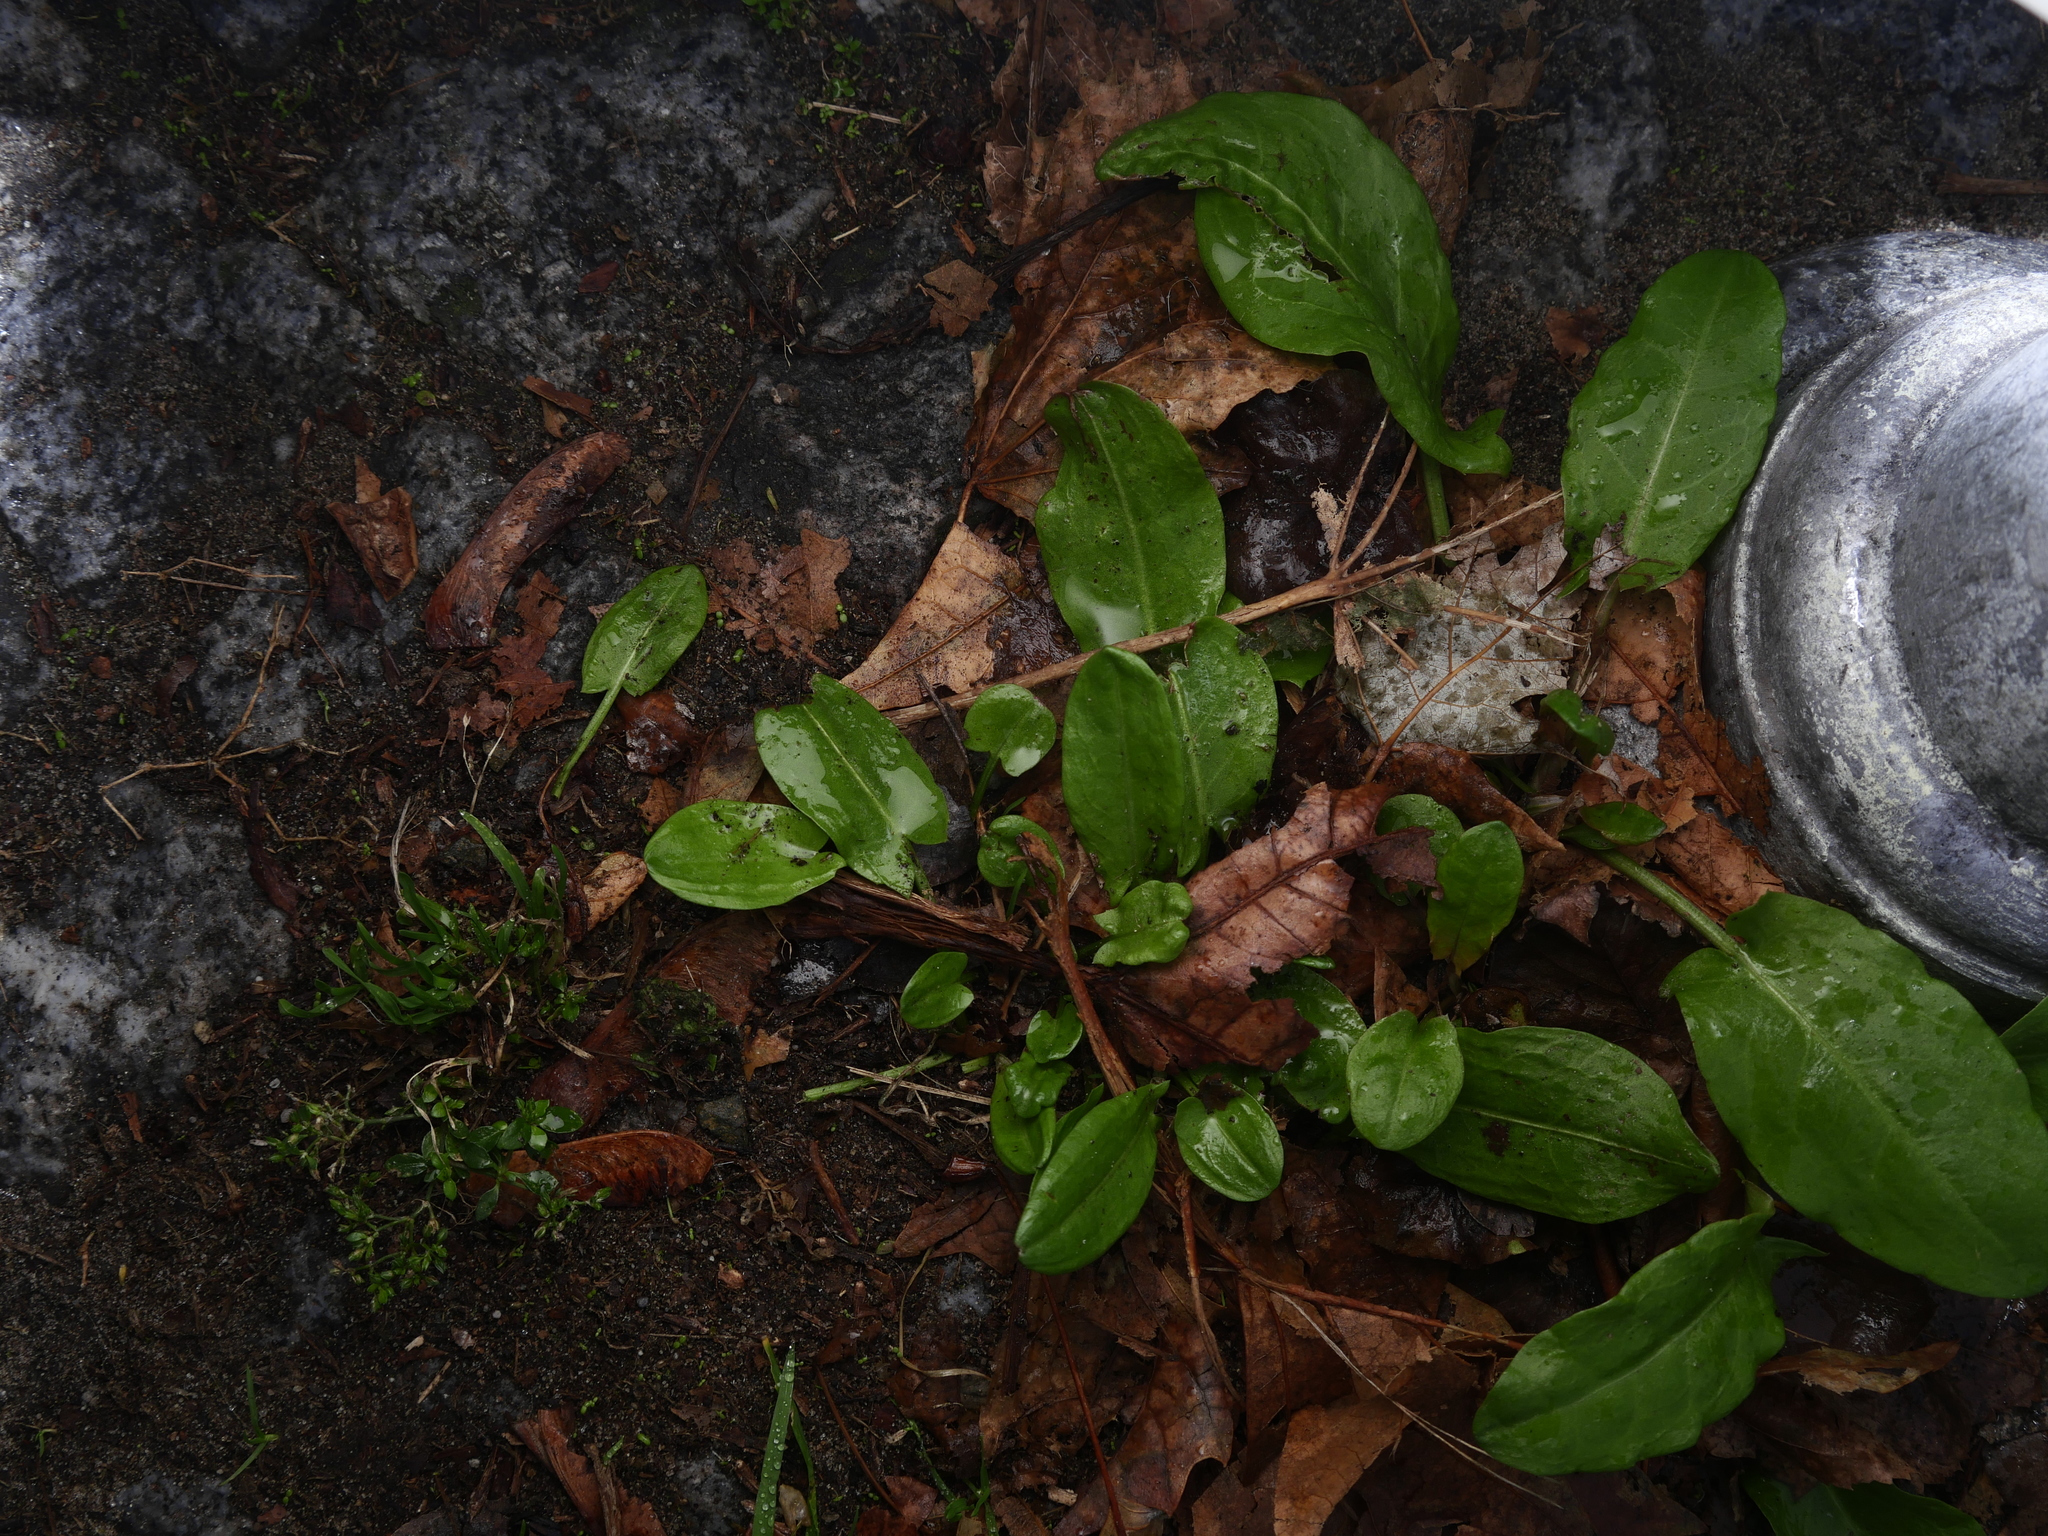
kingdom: Plantae
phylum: Tracheophyta
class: Magnoliopsida
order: Caryophyllales
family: Polygonaceae
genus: Rumex
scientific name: Rumex acetosa
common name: Garden sorrel
